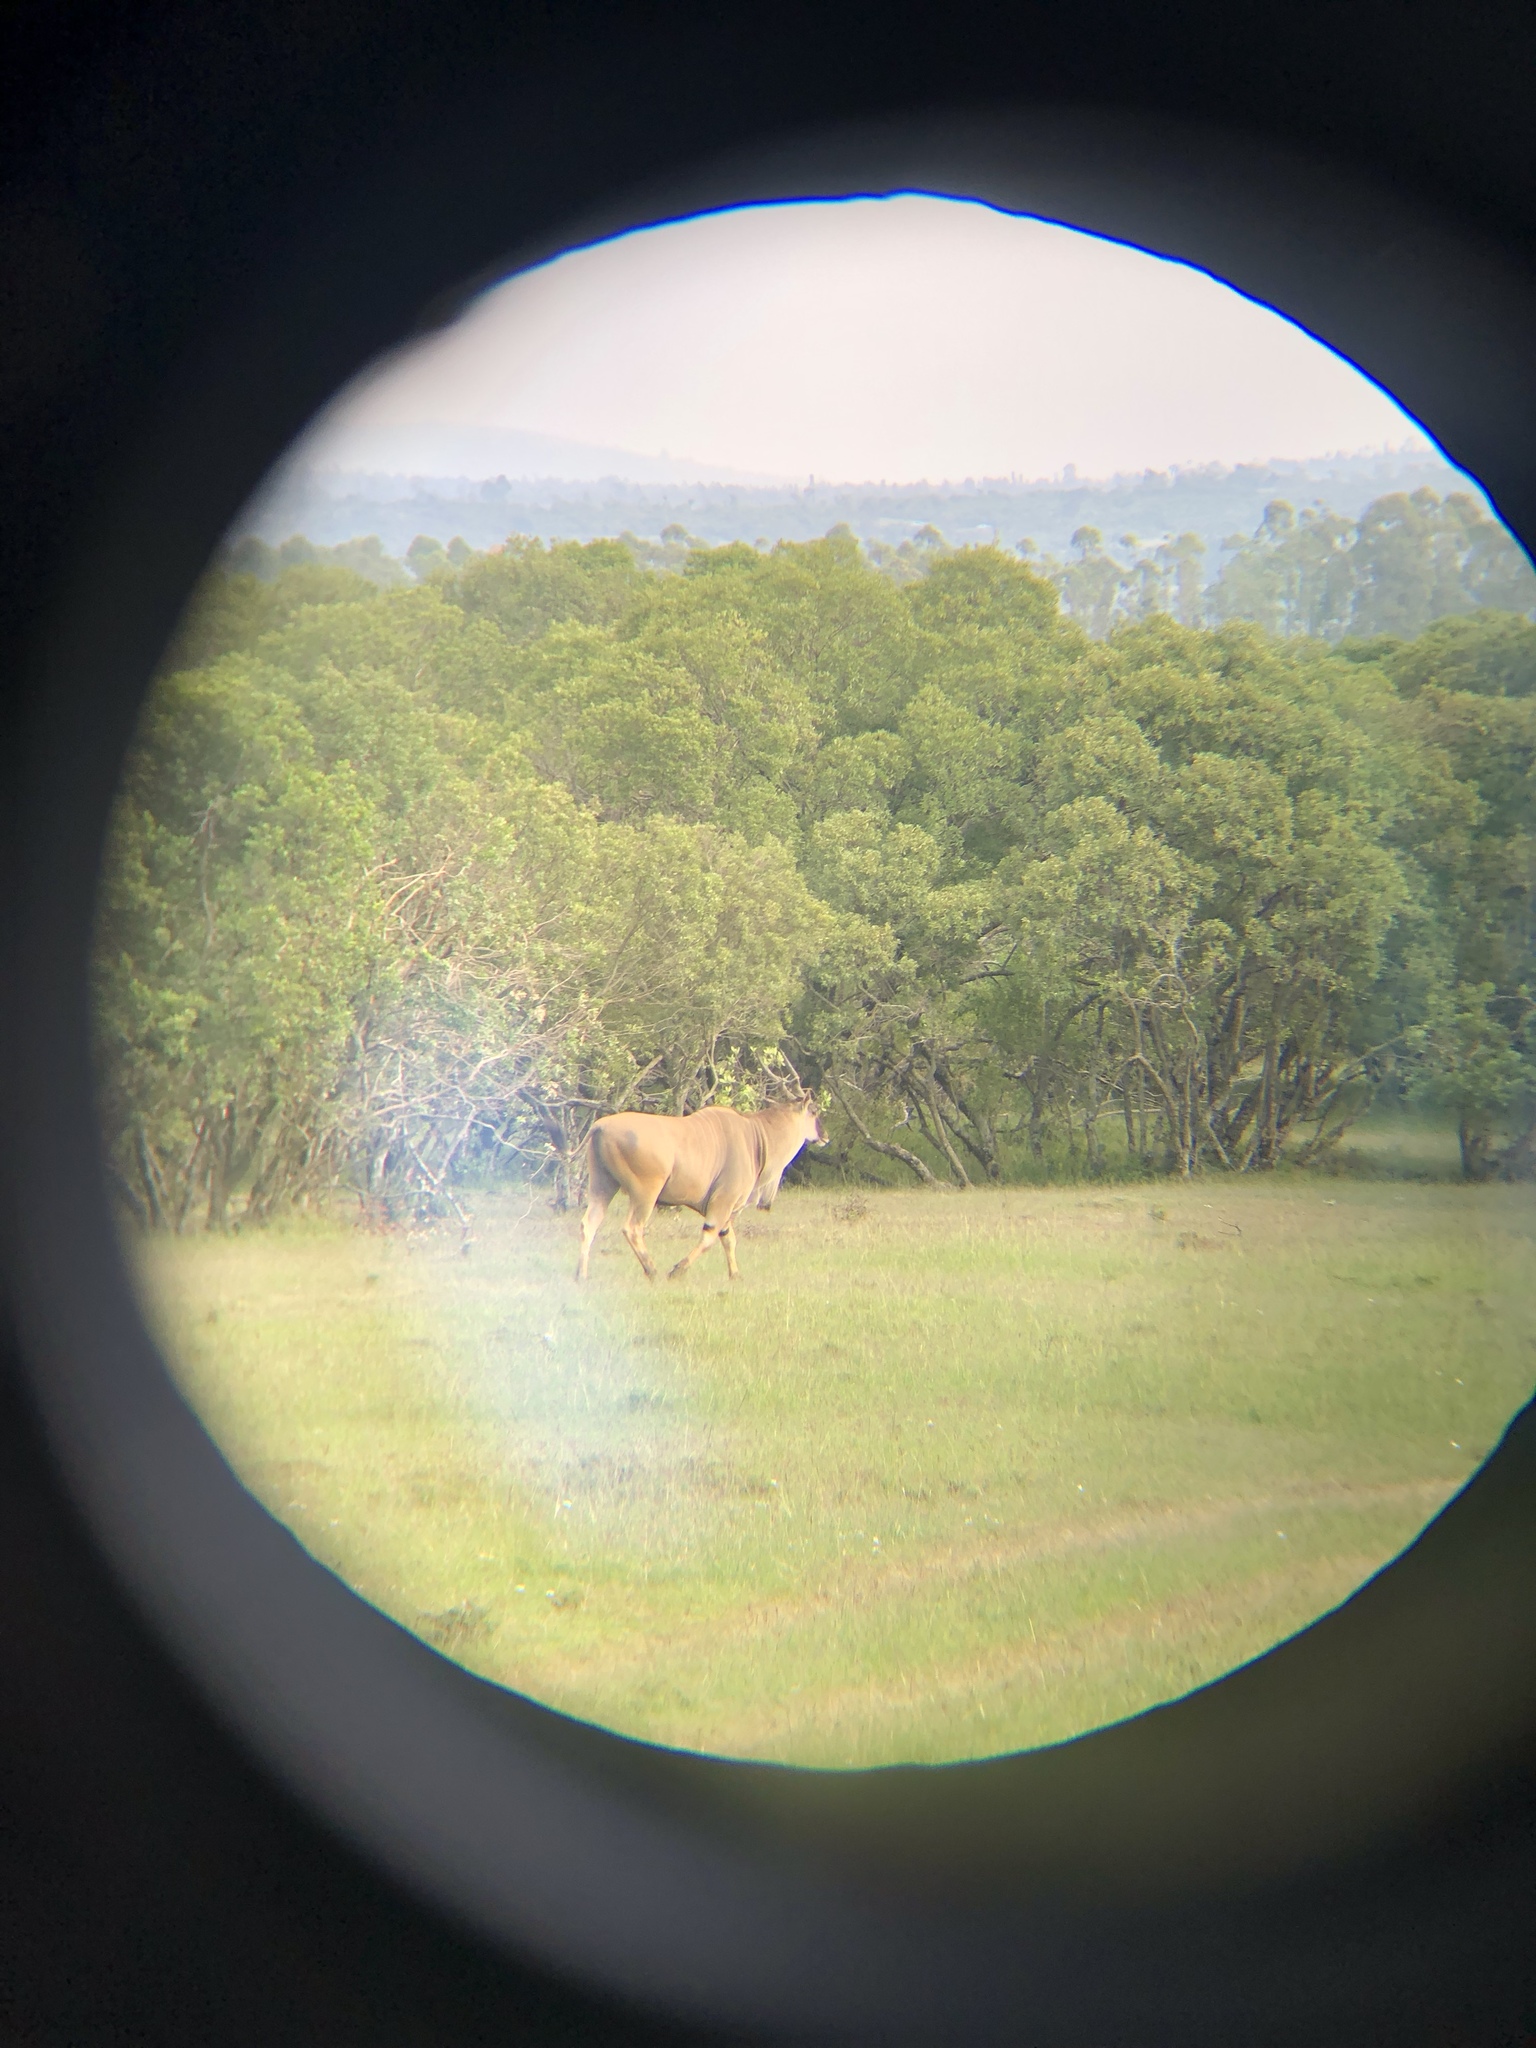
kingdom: Animalia
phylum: Chordata
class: Mammalia
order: Artiodactyla
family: Bovidae
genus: Taurotragus
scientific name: Taurotragus oryx
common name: Common eland
